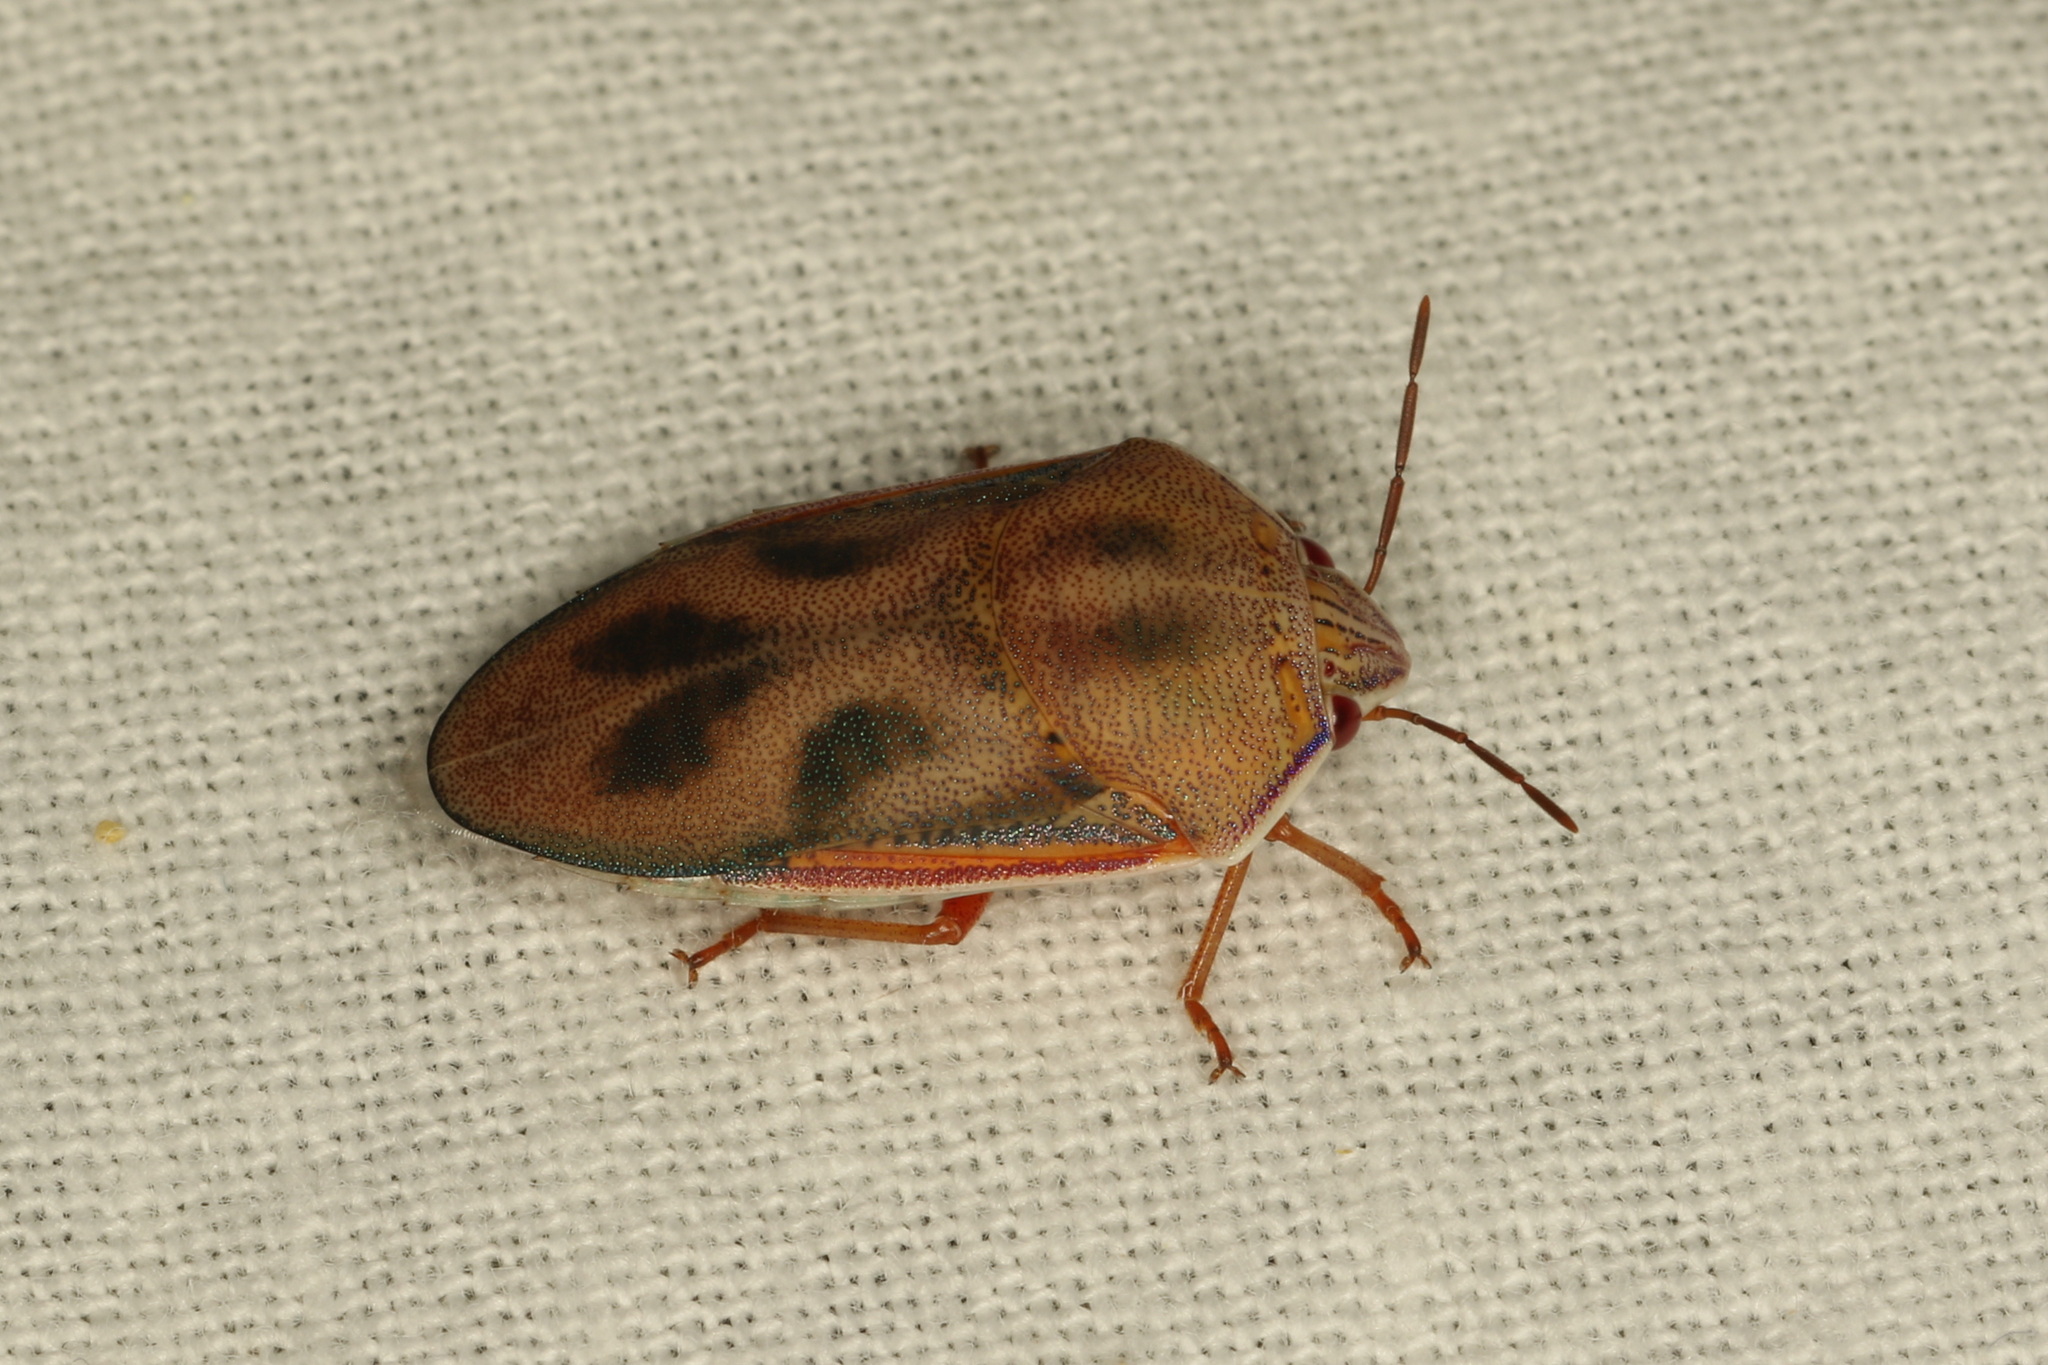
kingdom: Animalia
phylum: Arthropoda
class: Insecta
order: Hemiptera
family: Pentatomidae
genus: Coleotichus
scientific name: Coleotichus costatus
